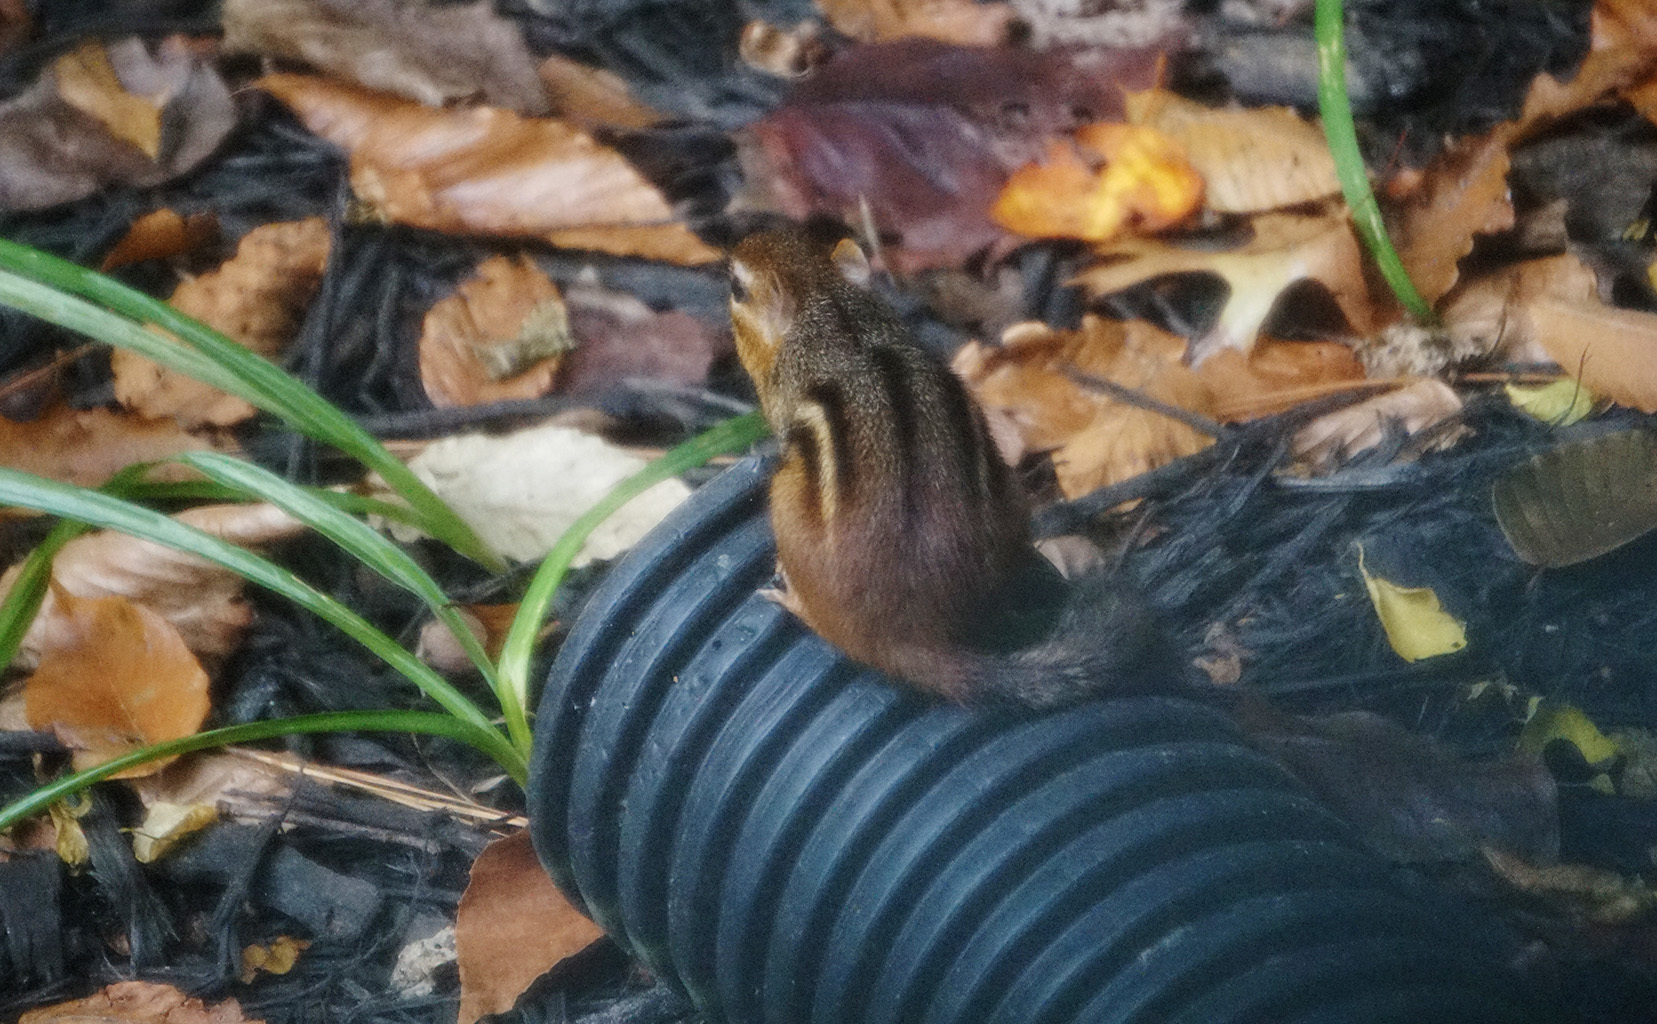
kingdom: Animalia
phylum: Chordata
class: Mammalia
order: Rodentia
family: Sciuridae
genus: Tamias
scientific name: Tamias striatus
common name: Eastern chipmunk
